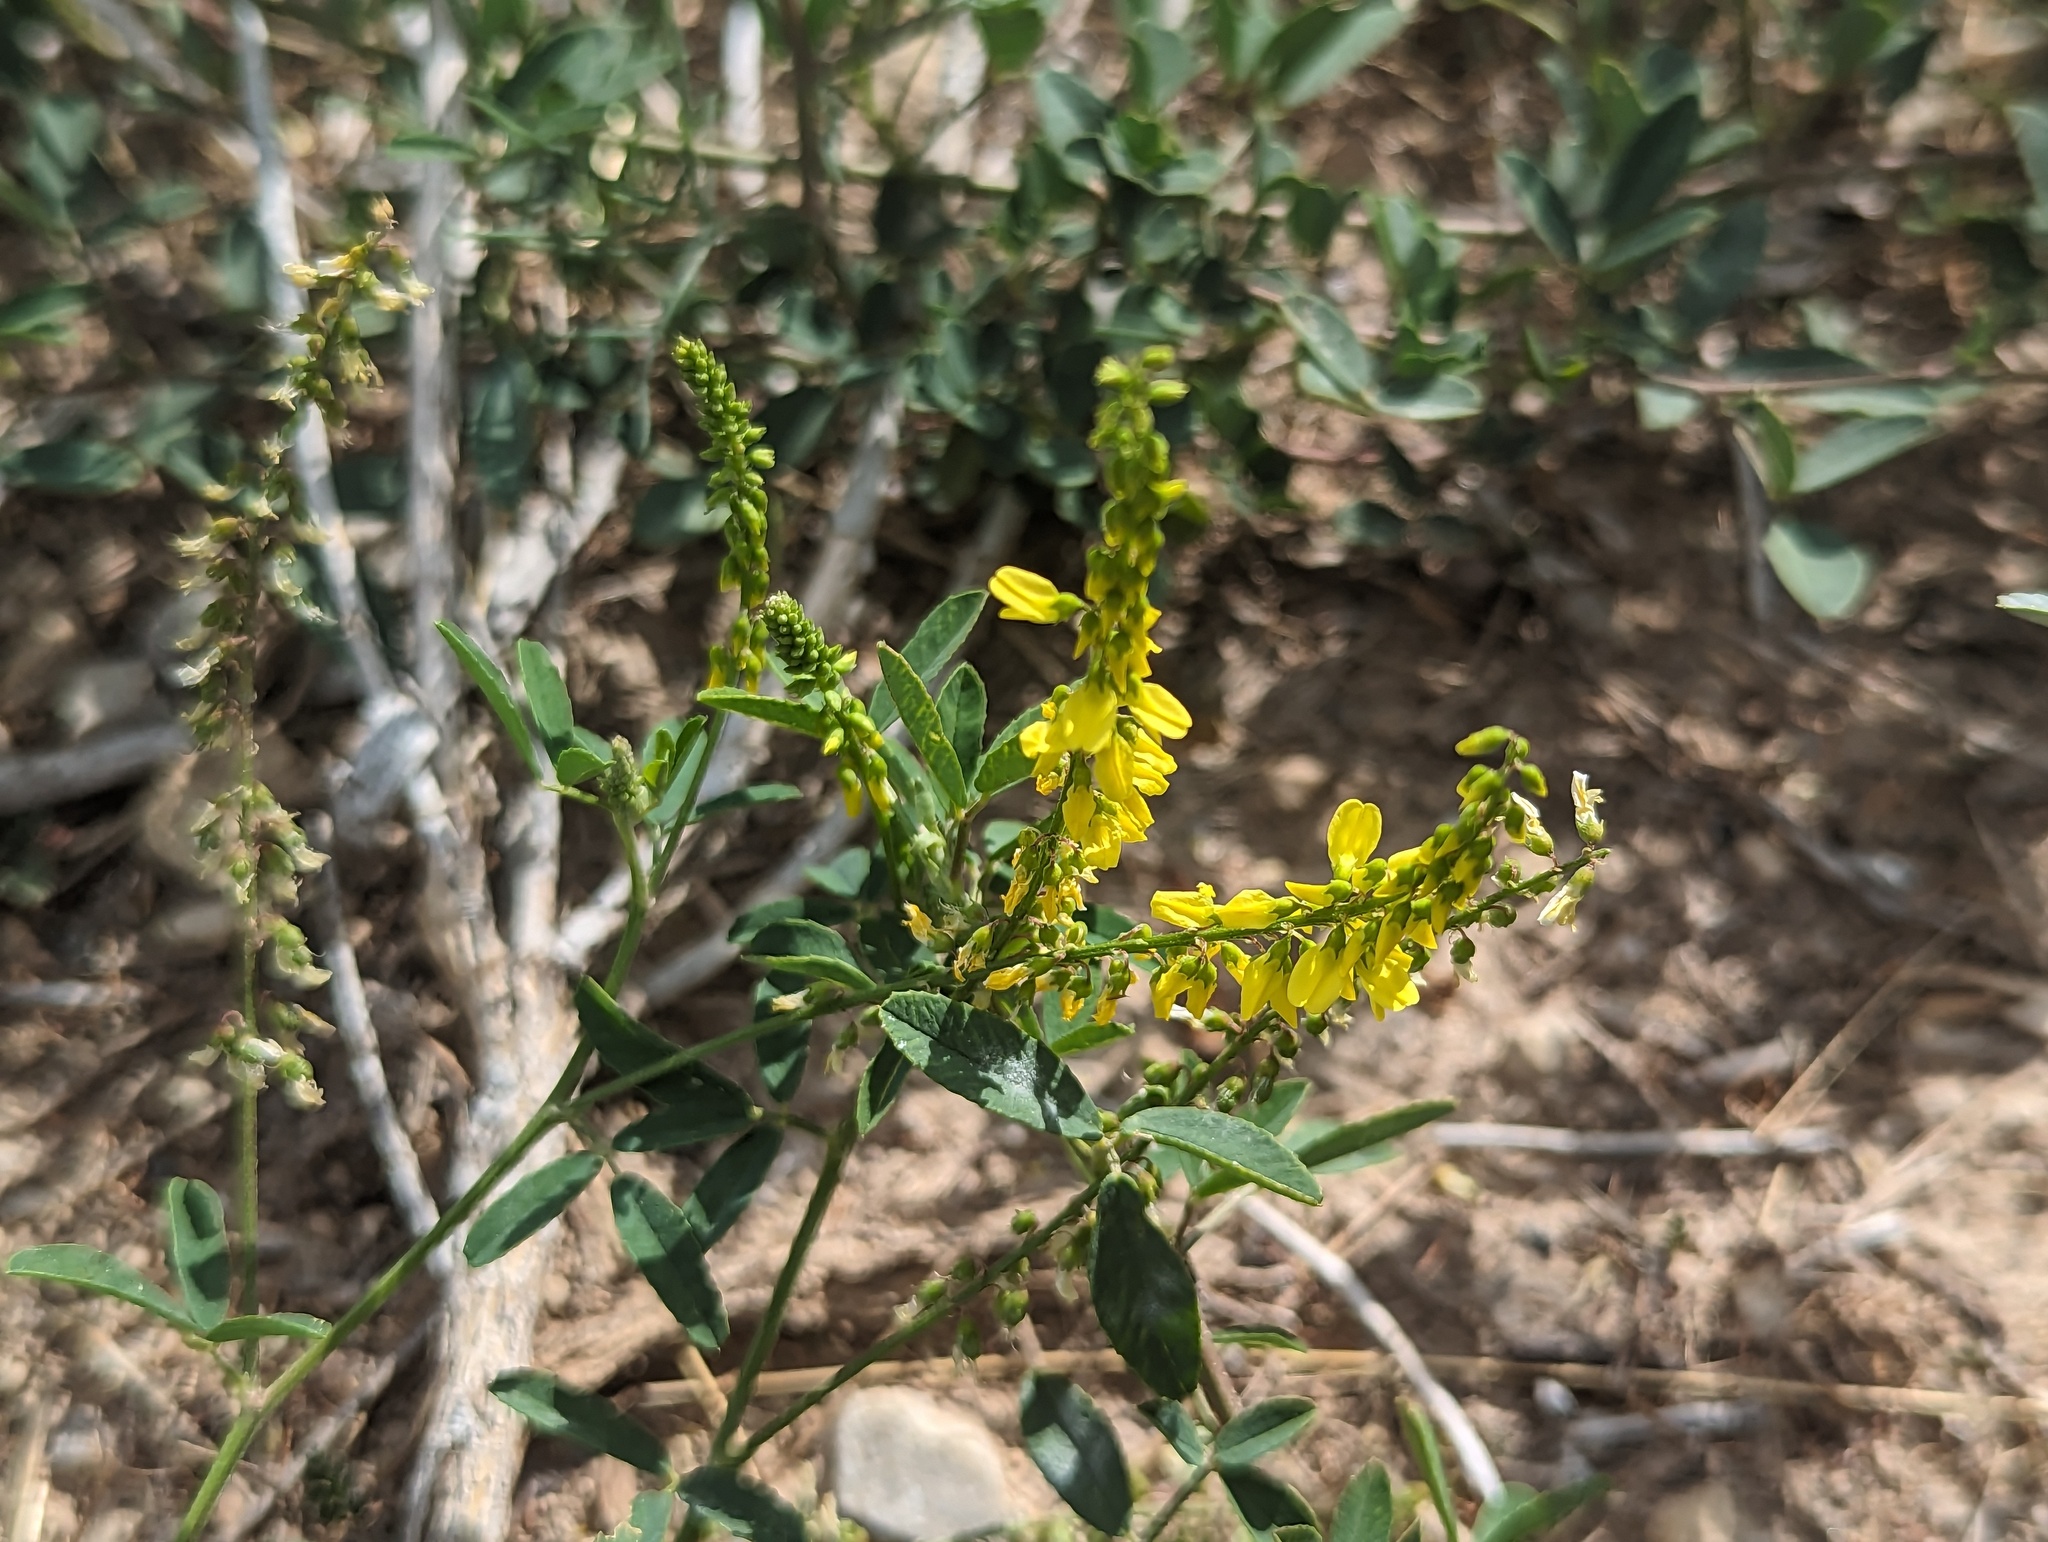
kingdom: Plantae
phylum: Tracheophyta
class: Magnoliopsida
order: Fabales
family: Fabaceae
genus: Melilotus
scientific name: Melilotus officinalis
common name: Sweetclover
